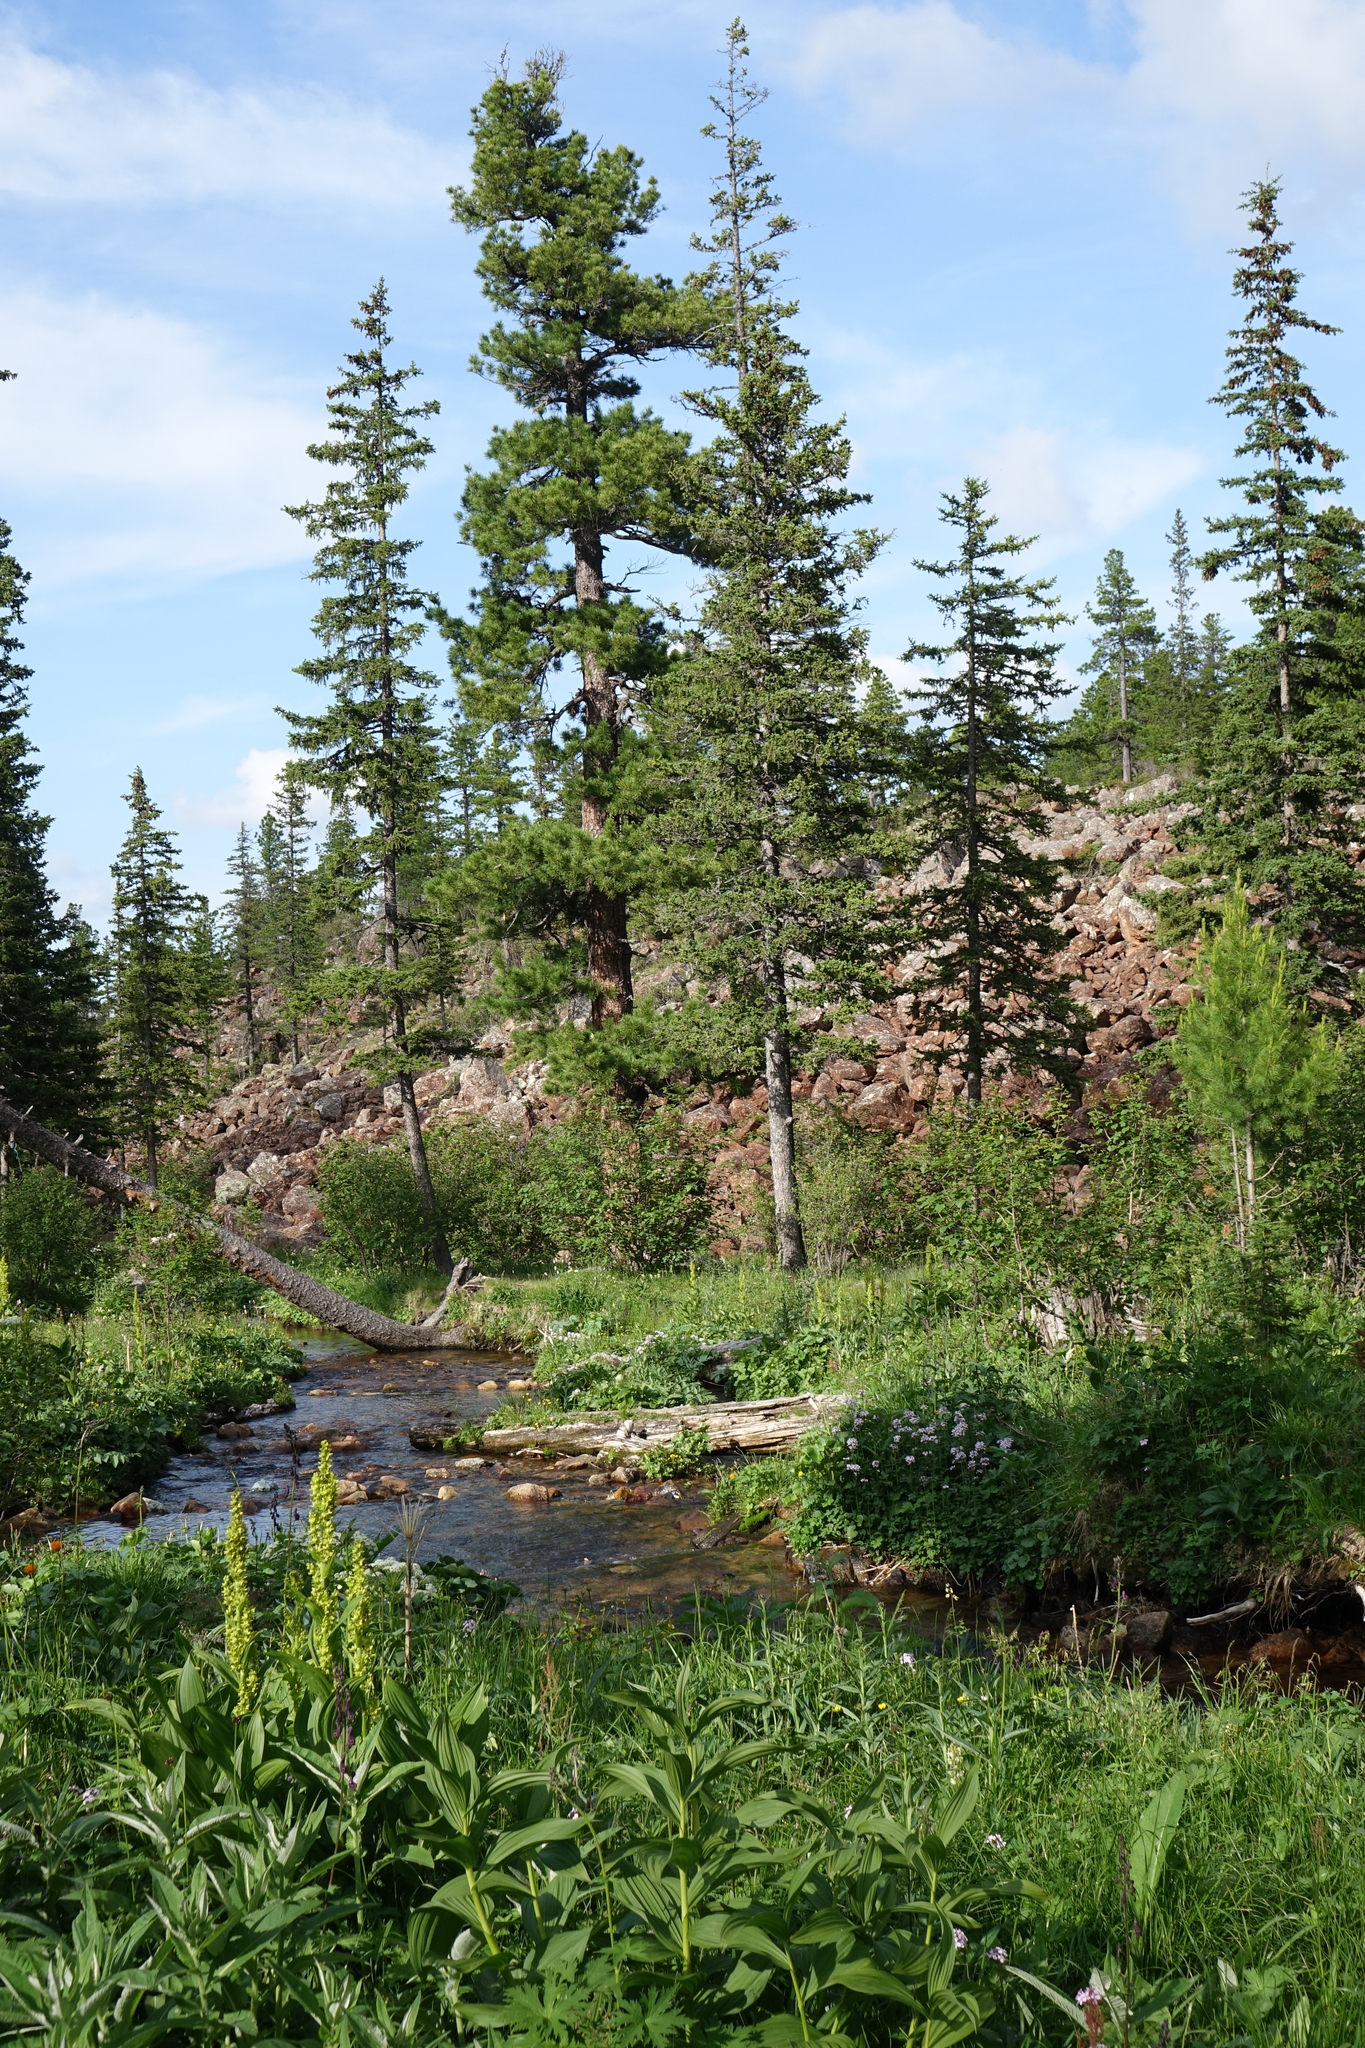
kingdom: Plantae
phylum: Tracheophyta
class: Pinopsida
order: Pinales
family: Pinaceae
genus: Picea
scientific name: Picea obovata
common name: Siberian spruce
